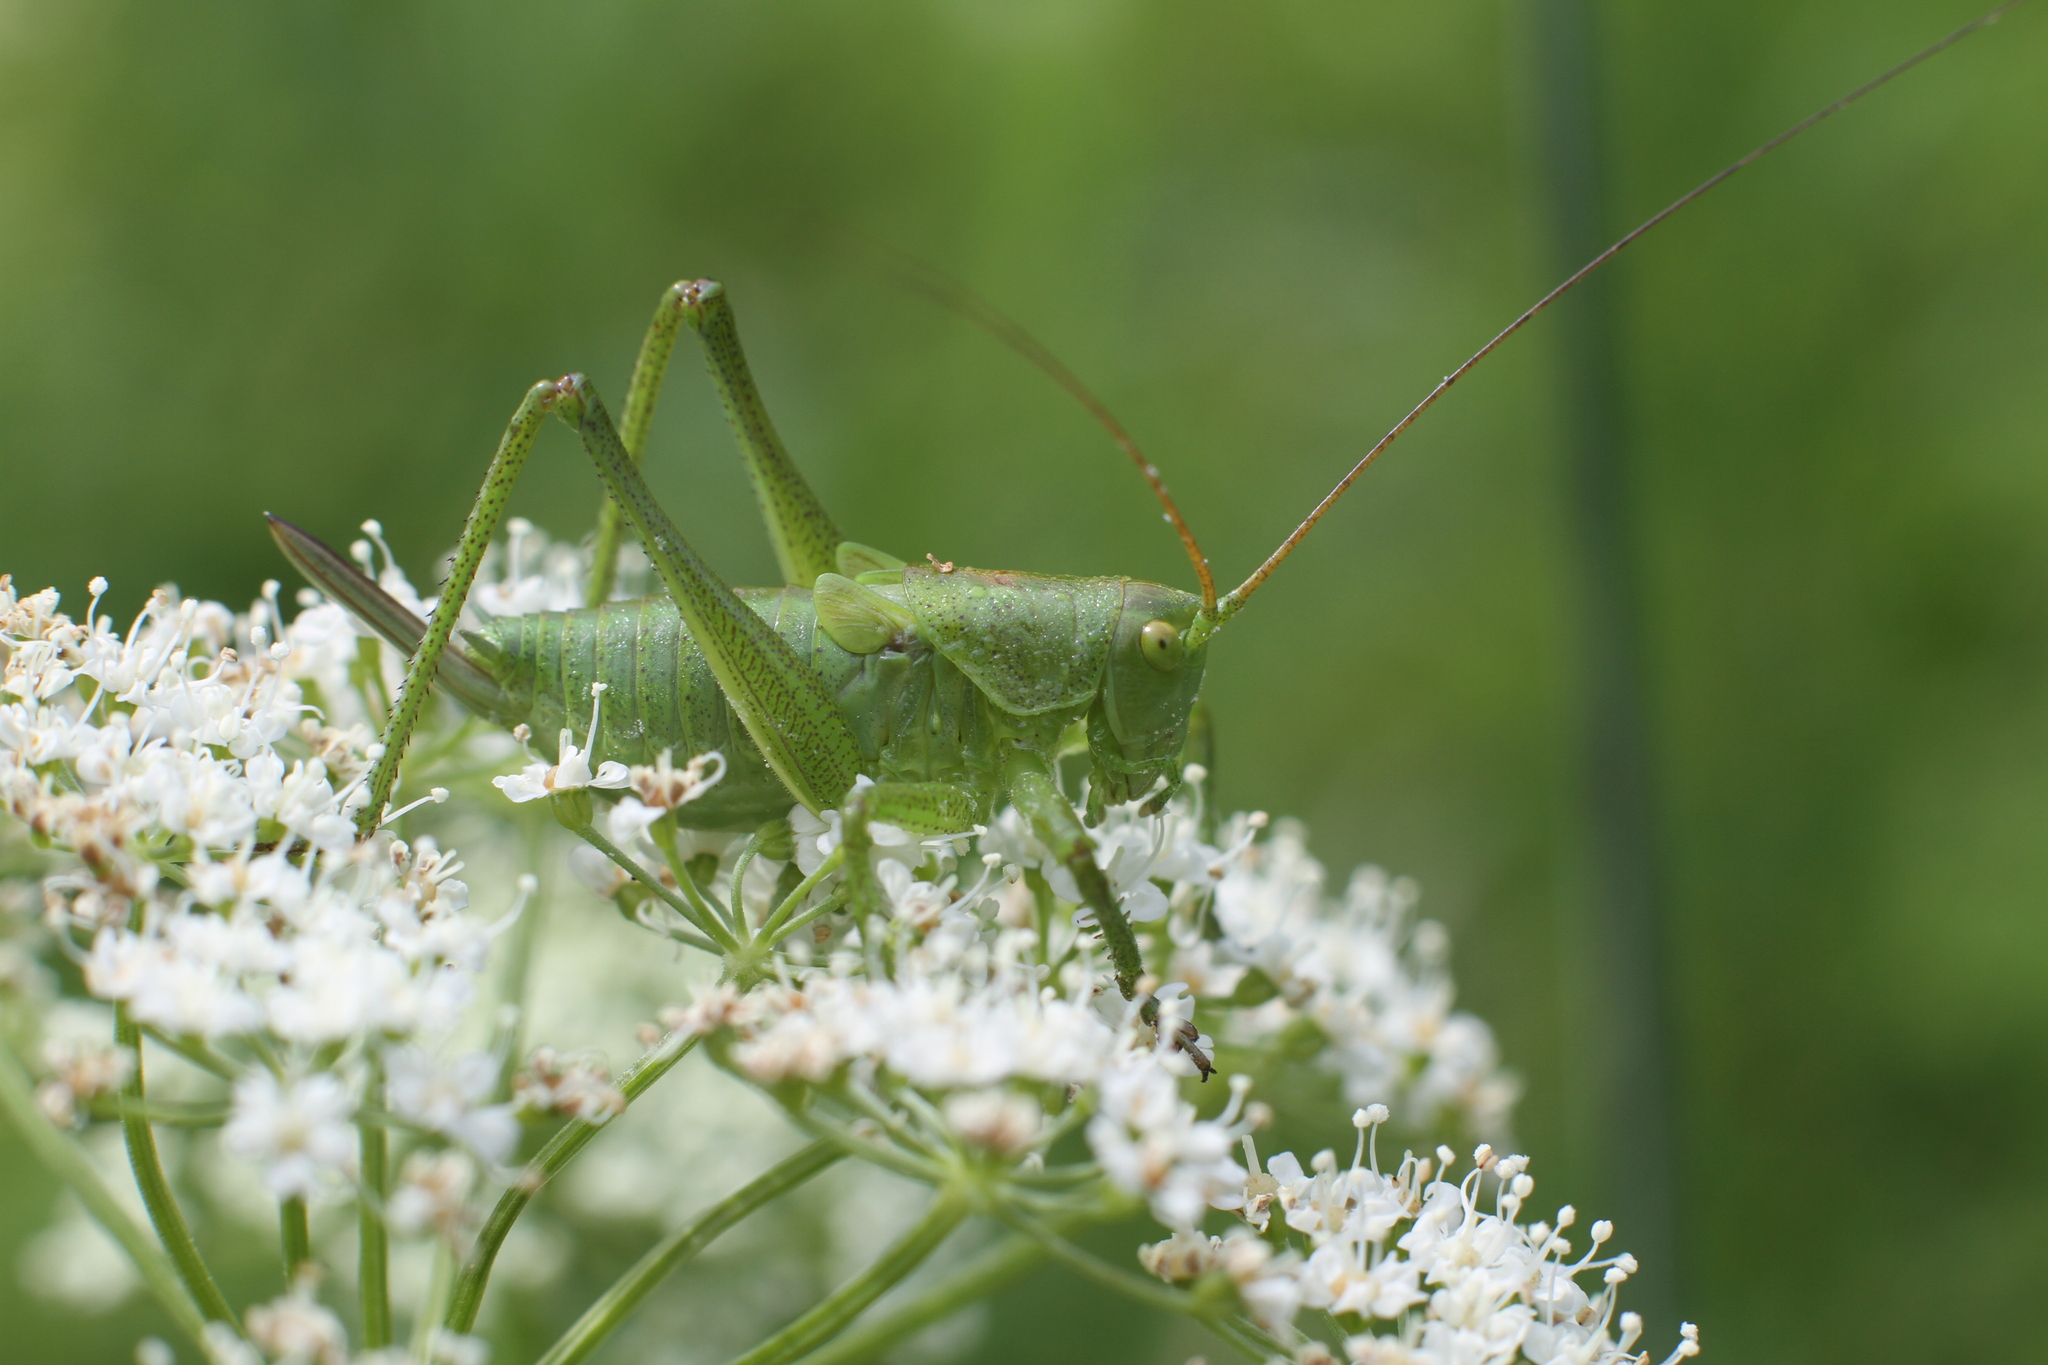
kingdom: Animalia
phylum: Arthropoda
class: Insecta
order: Orthoptera
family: Tettigoniidae
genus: Tettigonia
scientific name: Tettigonia cantans
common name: Upland green bush-cricket
